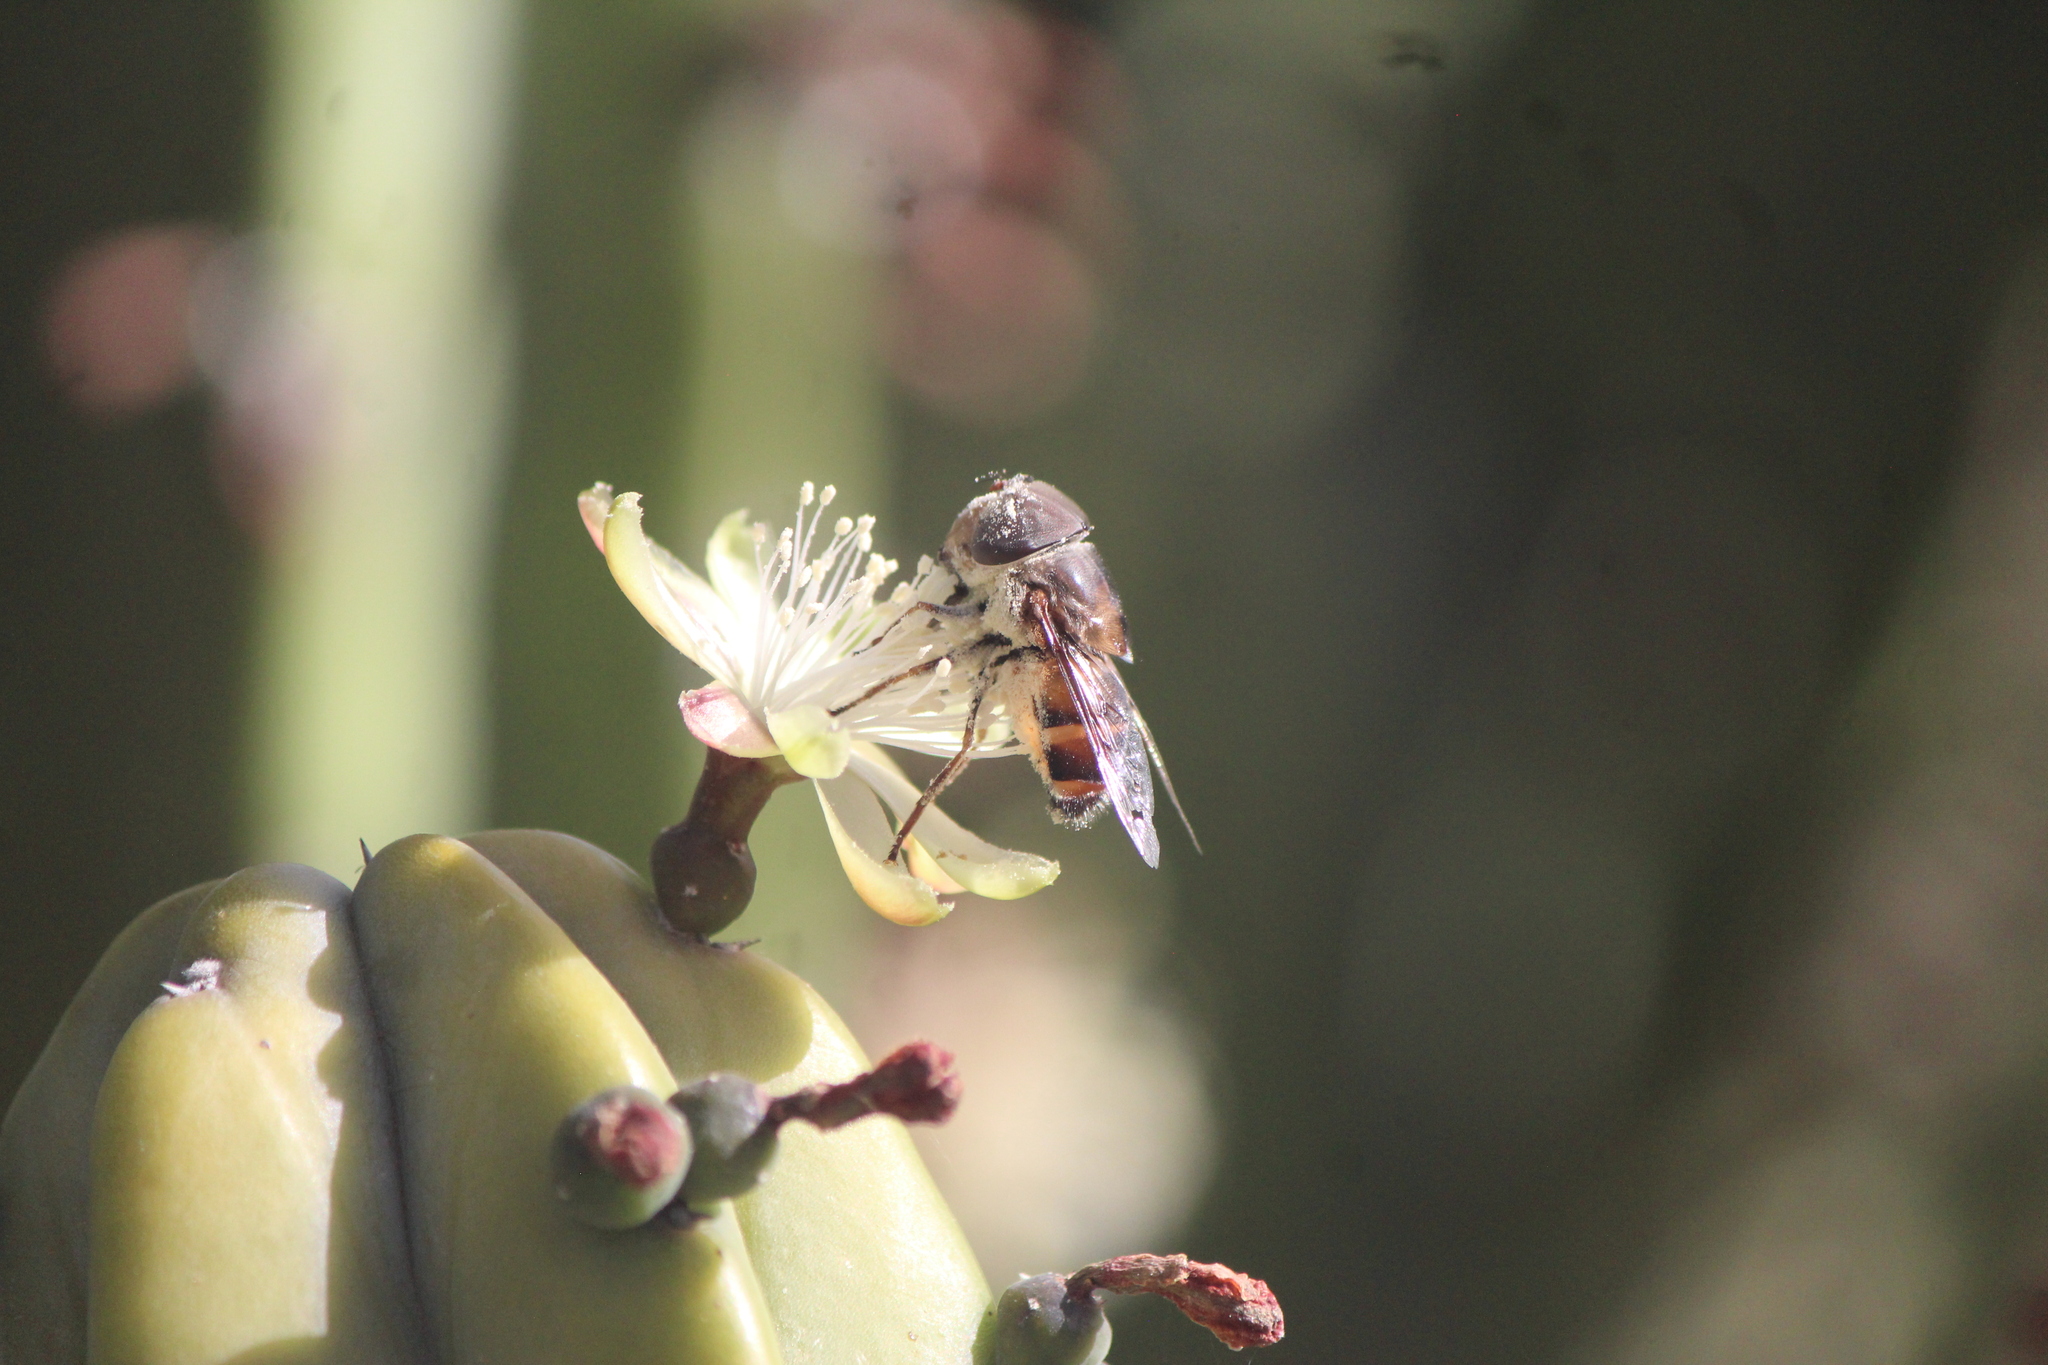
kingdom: Animalia
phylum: Arthropoda
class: Insecta
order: Diptera
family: Syrphidae
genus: Copestylum
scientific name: Copestylum macrocephalum
